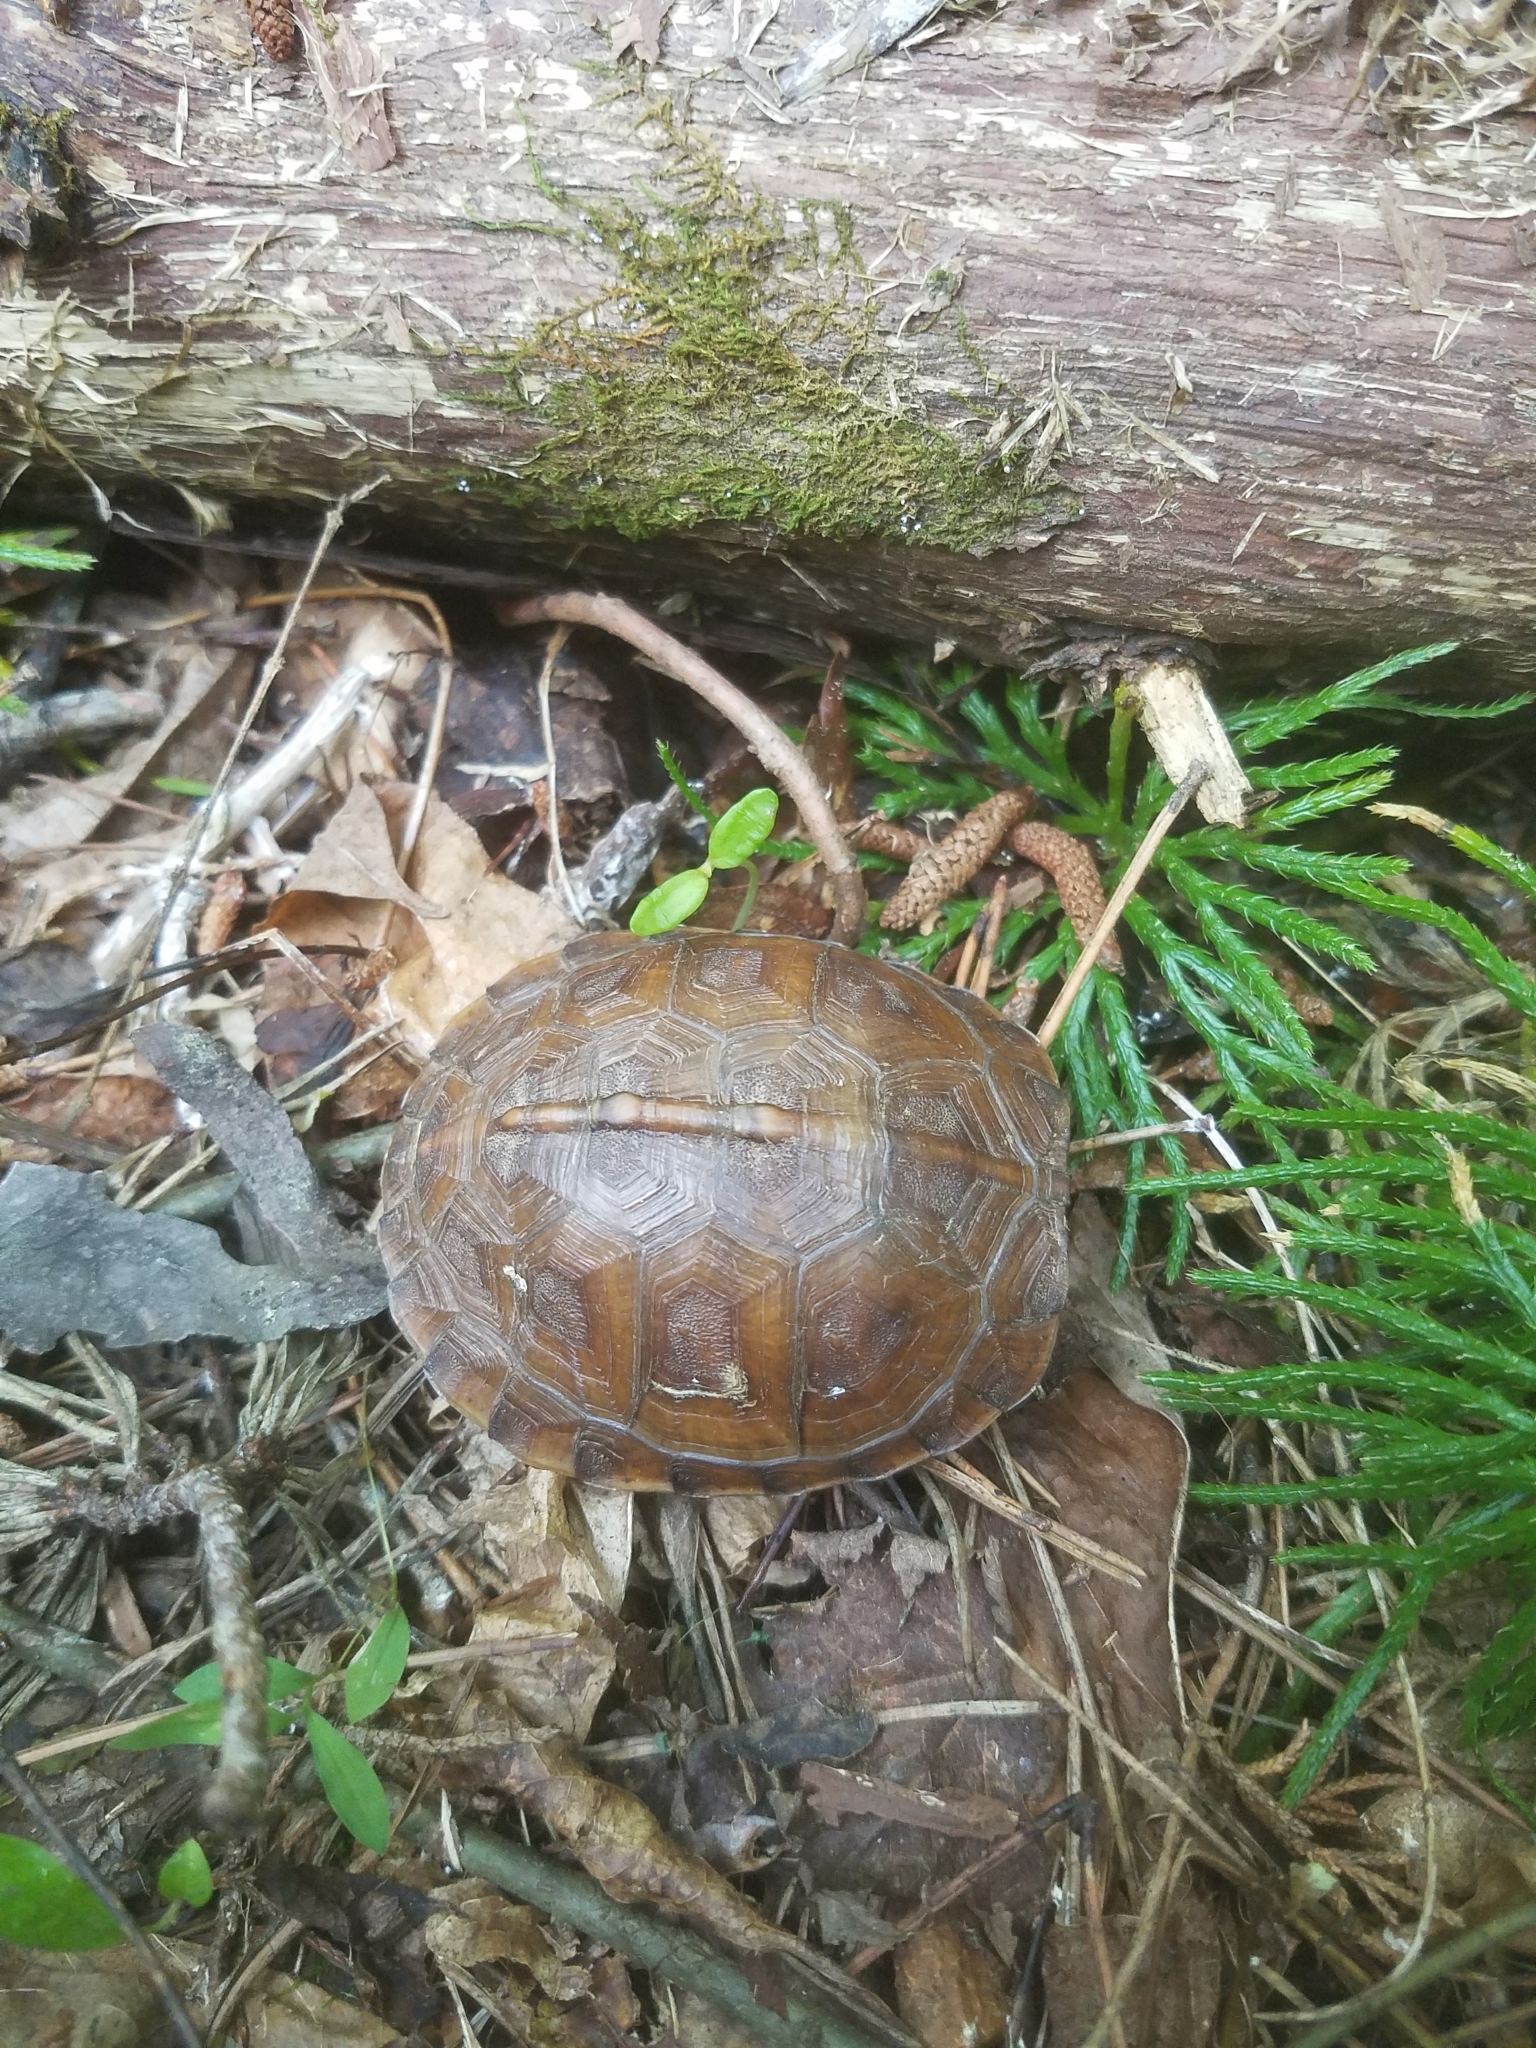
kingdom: Animalia
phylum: Chordata
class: Testudines
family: Emydidae
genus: Terrapene
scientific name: Terrapene carolina
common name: Common box turtle
